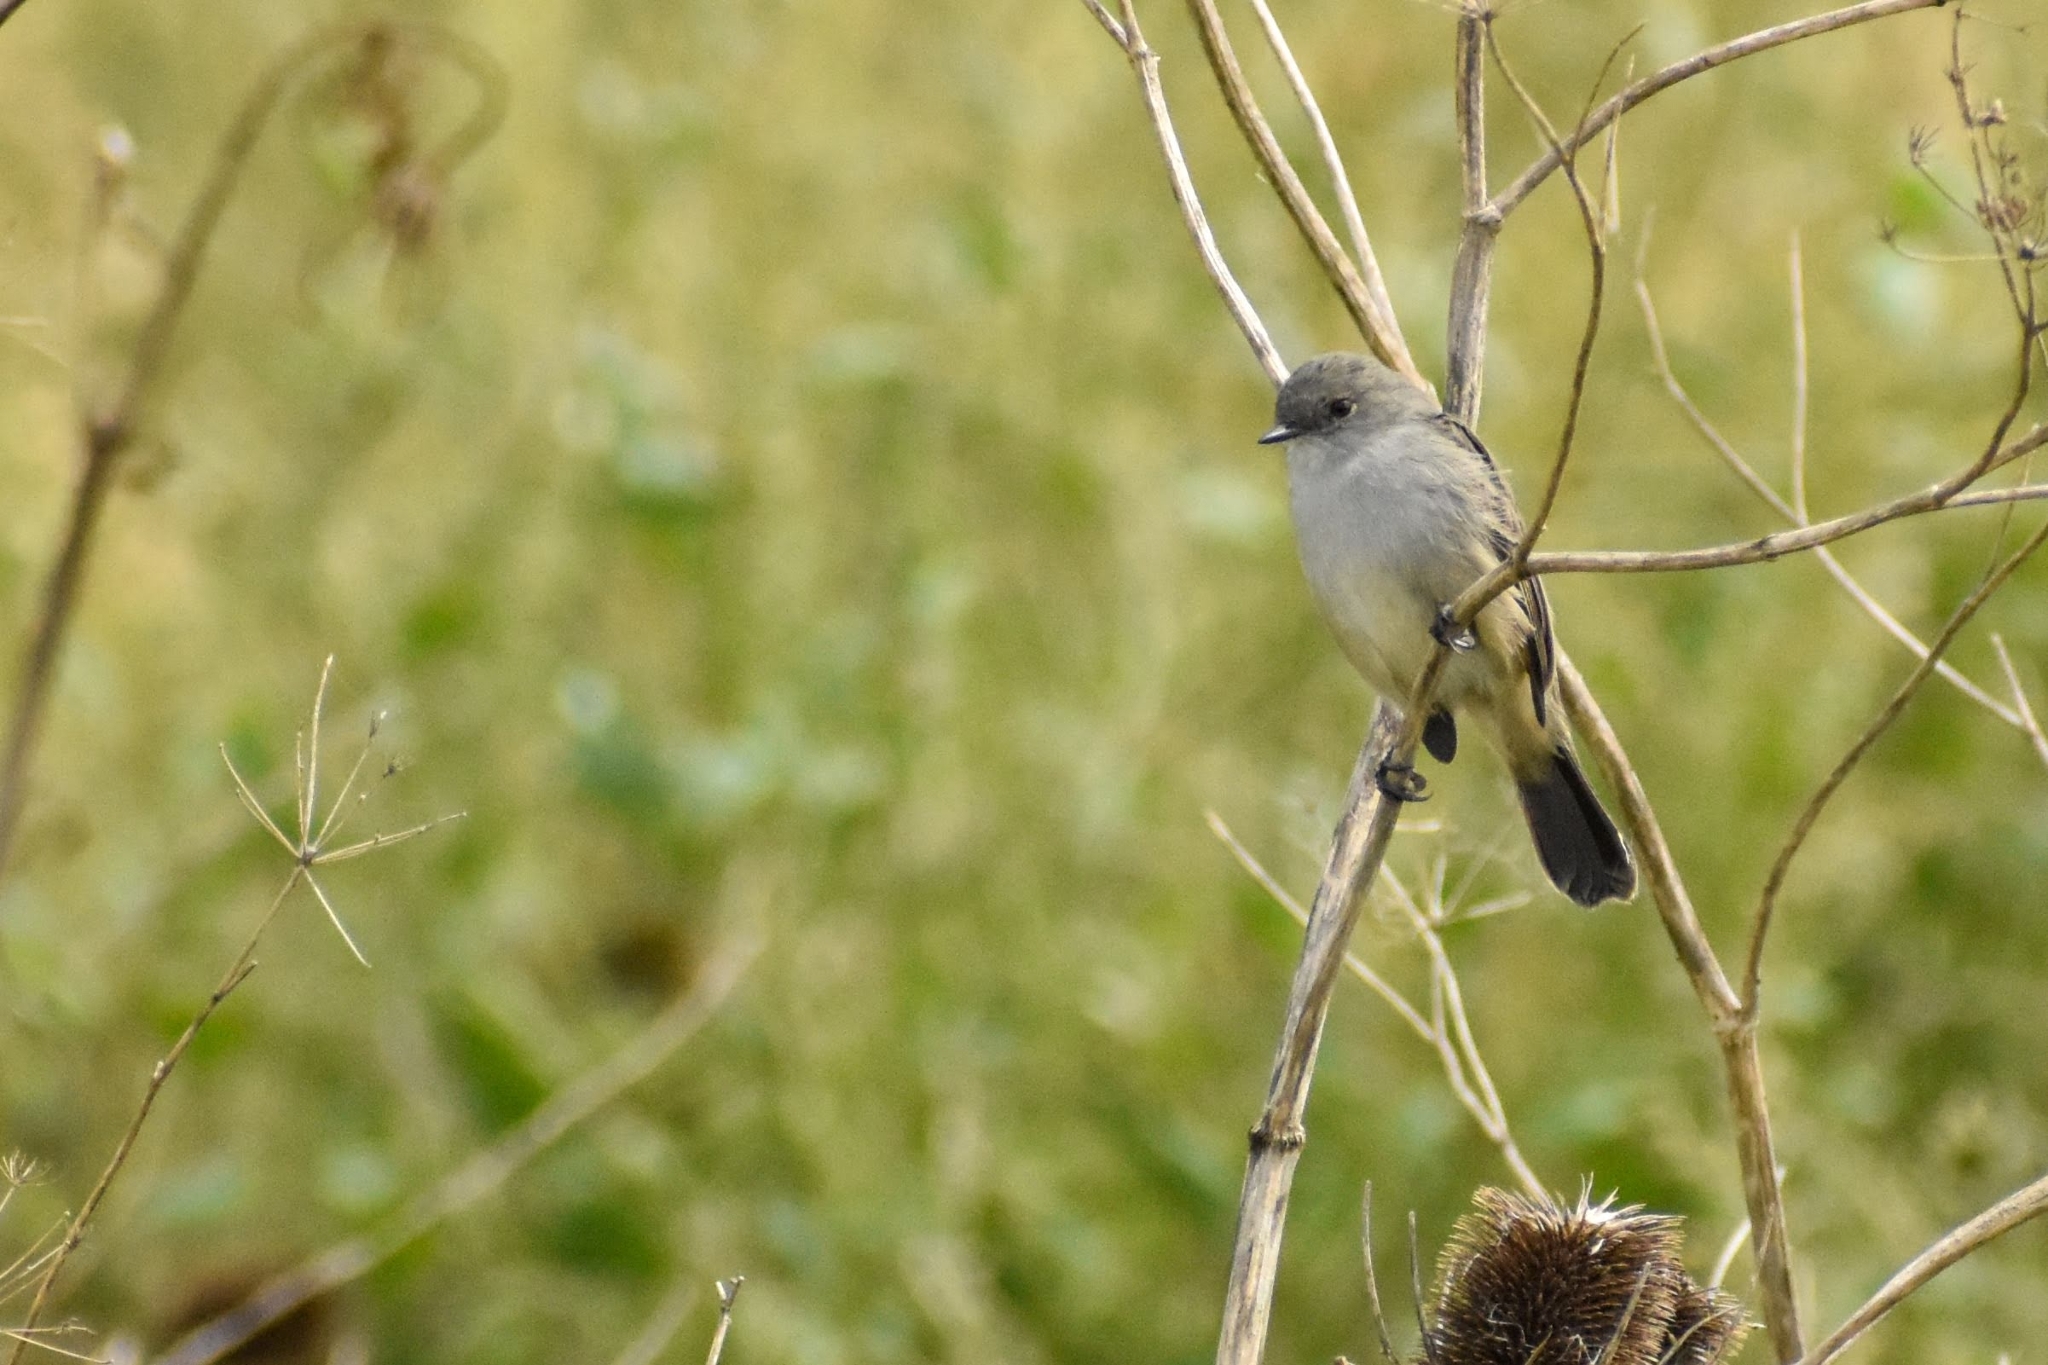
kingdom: Animalia
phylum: Chordata
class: Aves
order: Passeriformes
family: Tyrannidae
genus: Serpophaga
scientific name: Serpophaga nigricans
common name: Sooty tyrannulet
